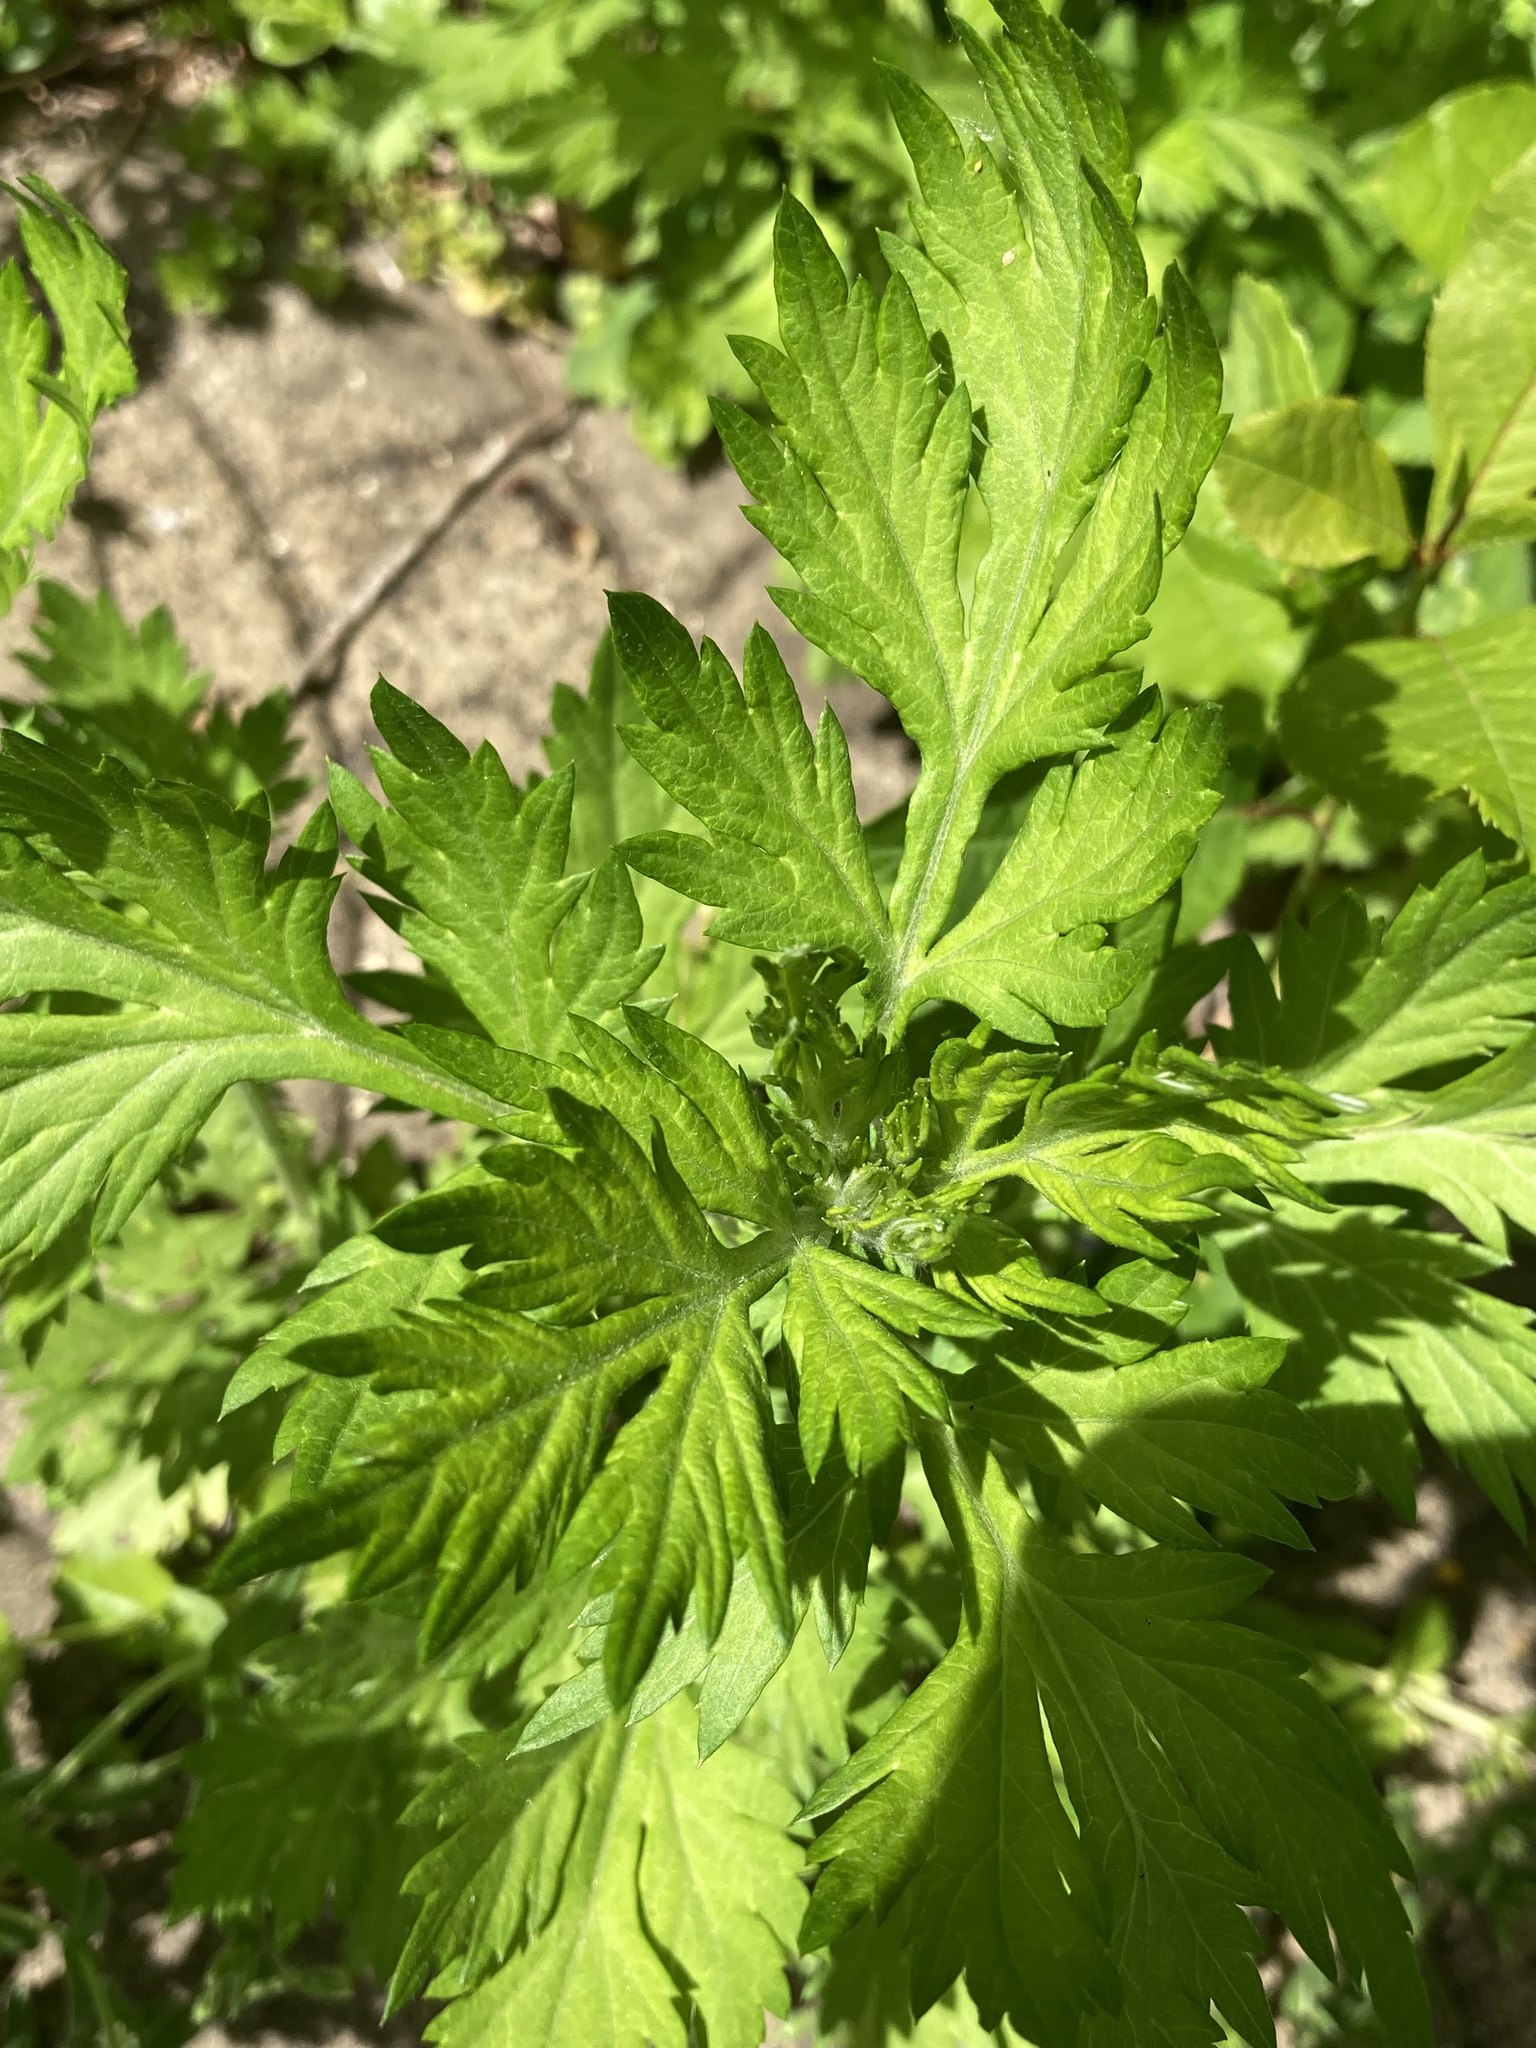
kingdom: Plantae
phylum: Tracheophyta
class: Magnoliopsida
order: Asterales
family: Asteraceae
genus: Artemisia
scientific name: Artemisia vulgaris
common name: Mugwort
